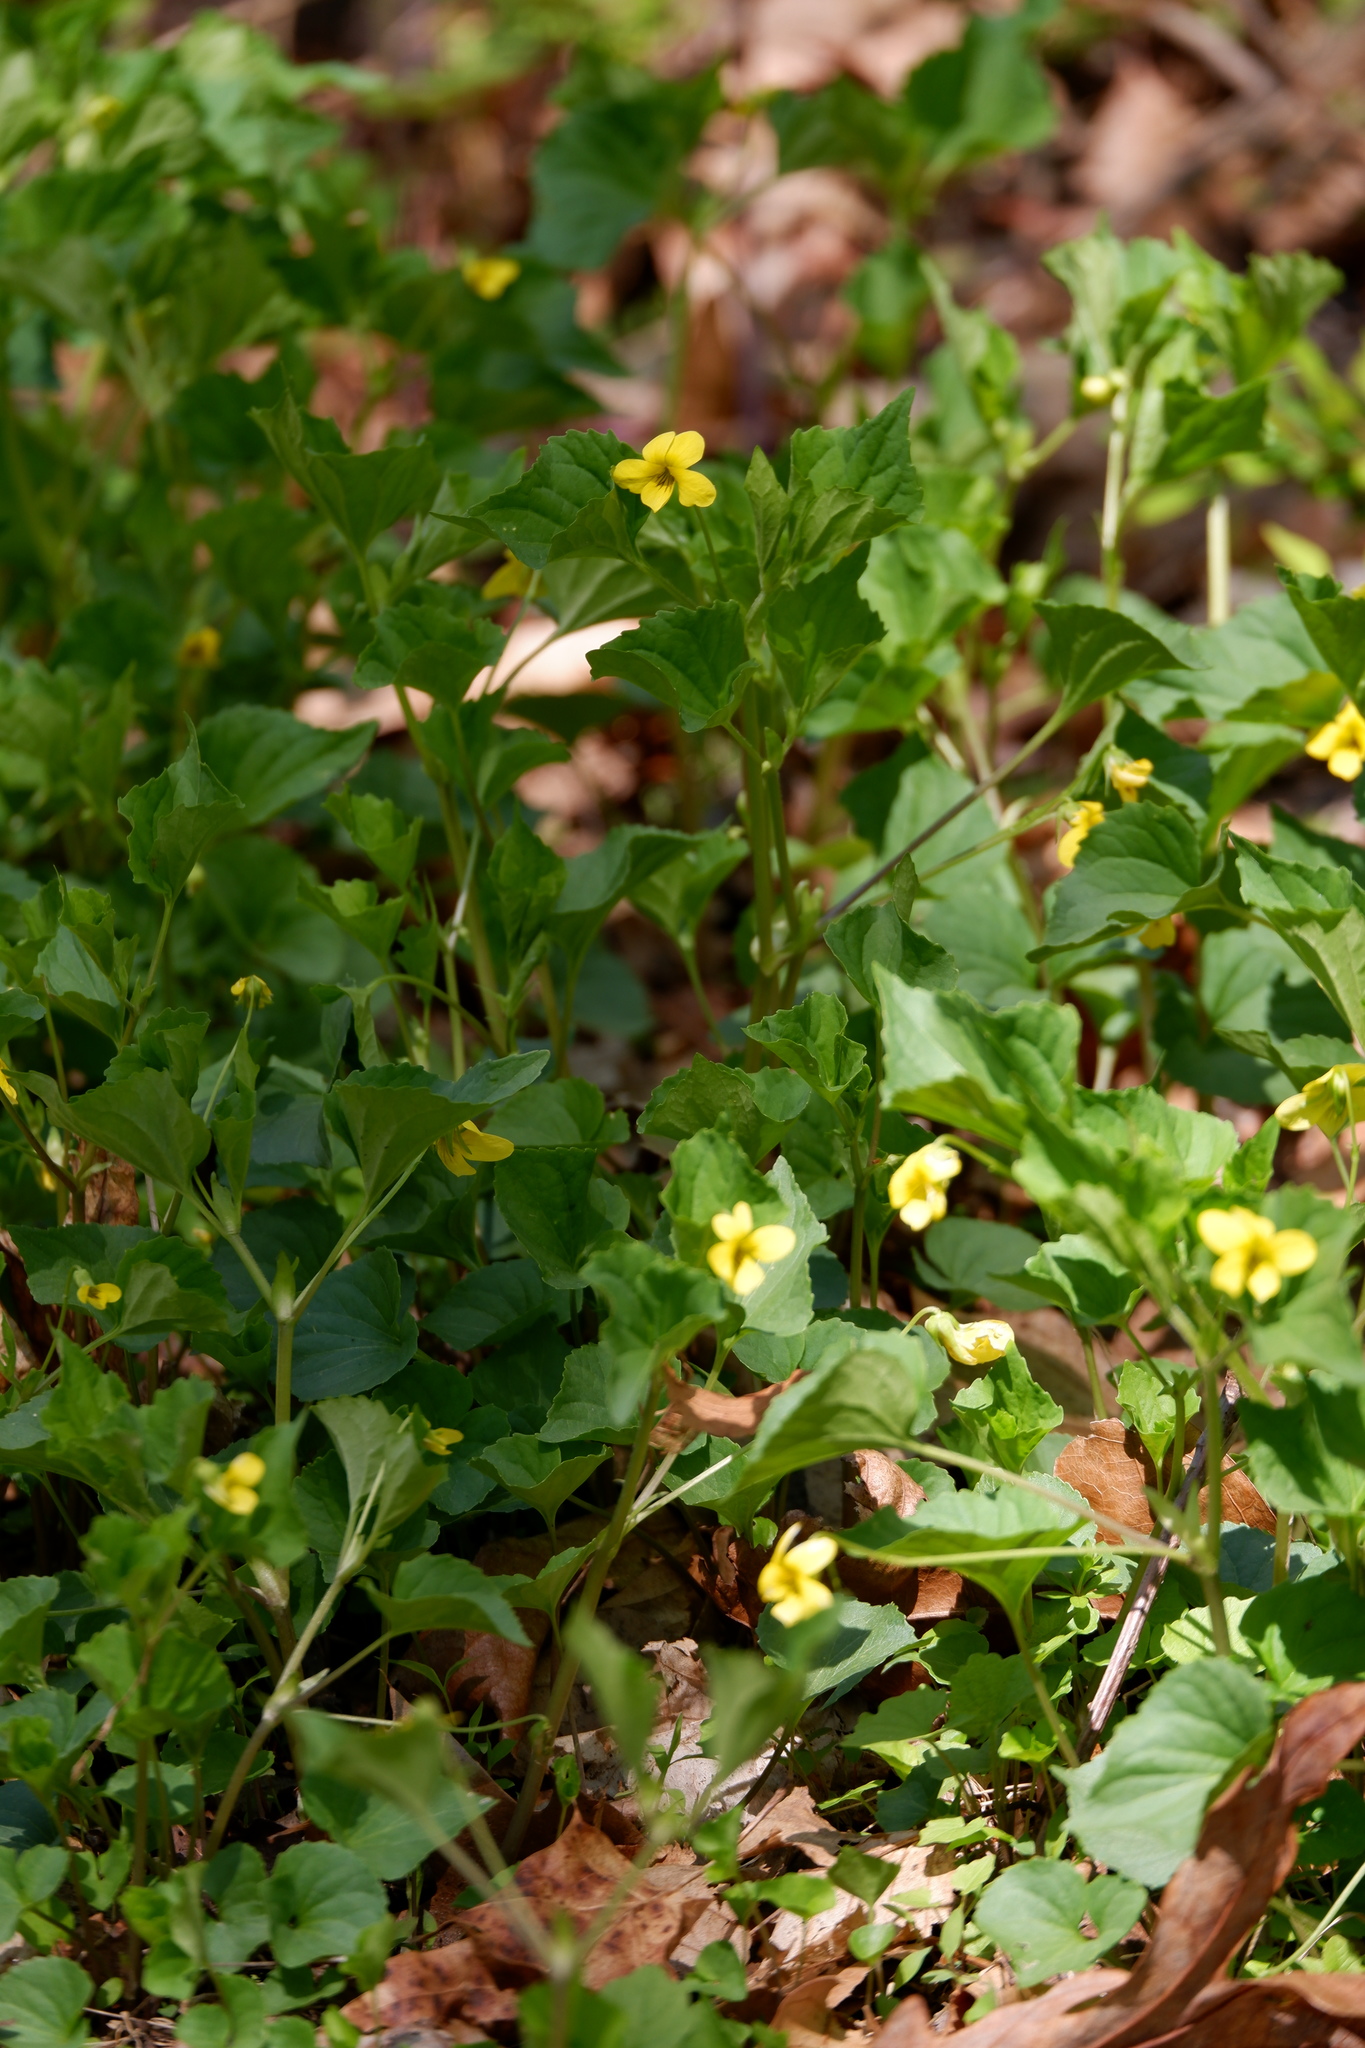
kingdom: Plantae
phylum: Tracheophyta
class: Magnoliopsida
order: Malpighiales
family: Violaceae
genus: Viola
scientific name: Viola eriocarpa
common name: Smooth yellow violet
